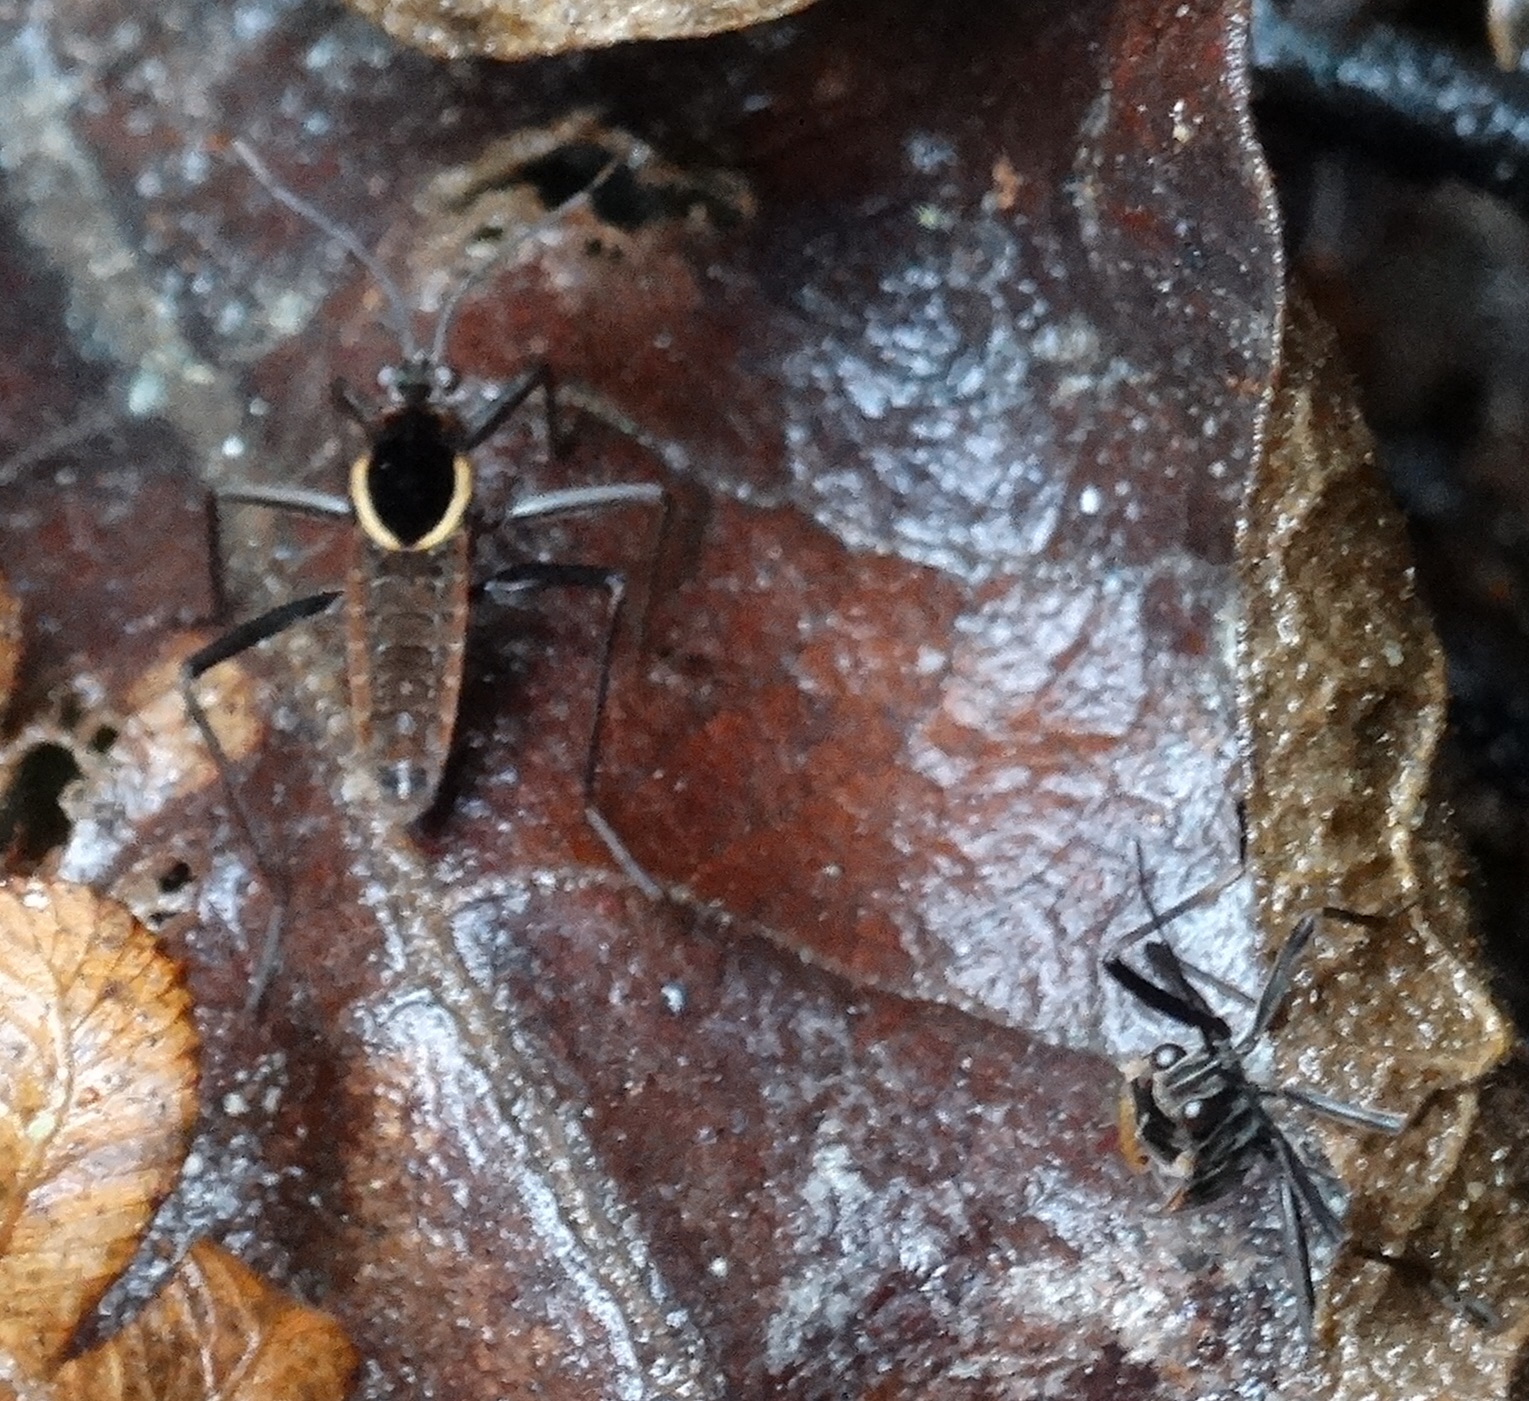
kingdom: Animalia
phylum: Arthropoda
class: Insecta
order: Hemiptera
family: Veliidae
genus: Altavelia
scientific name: Altavelia
